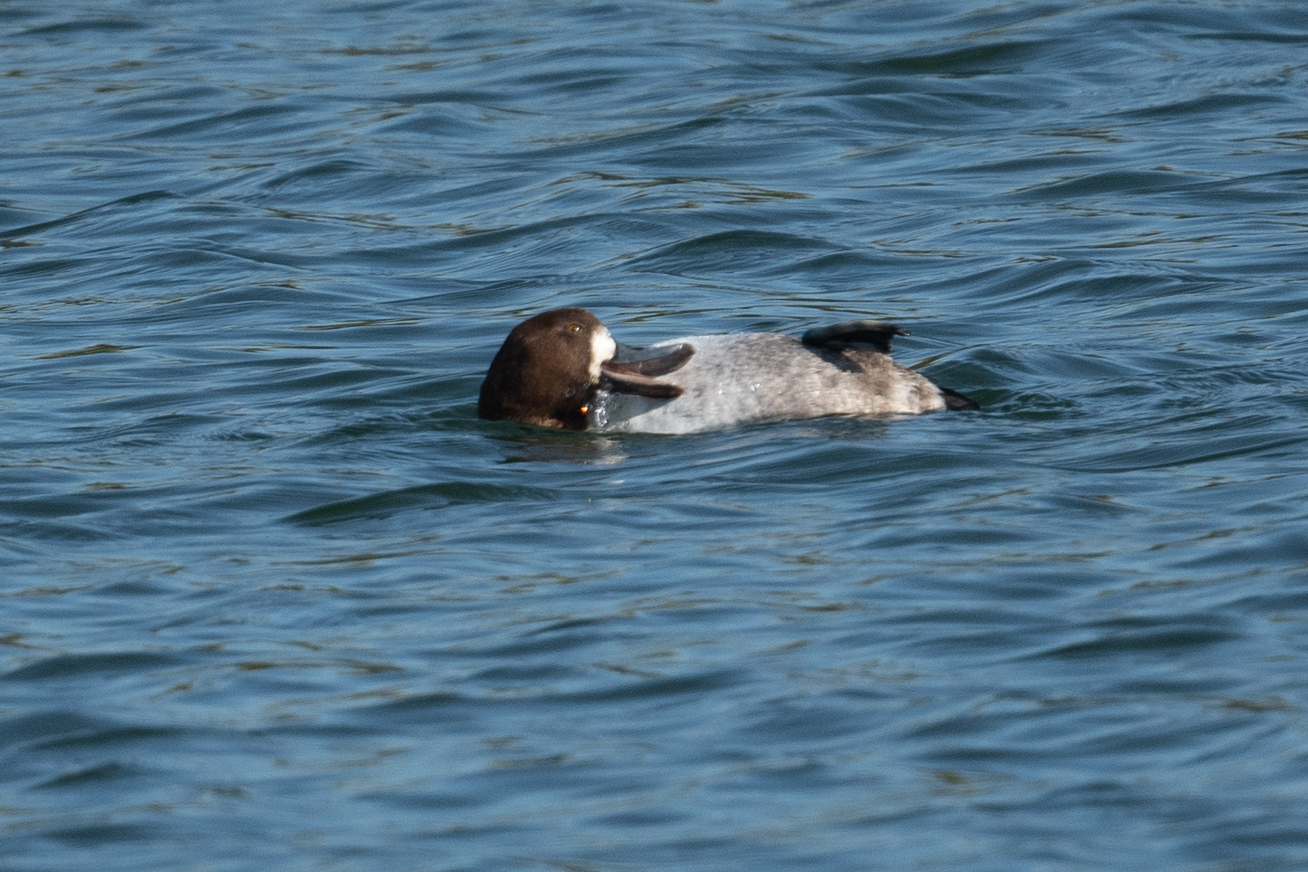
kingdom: Animalia
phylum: Chordata
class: Aves
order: Anseriformes
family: Anatidae
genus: Aythya
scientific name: Aythya marila
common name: Greater scaup
